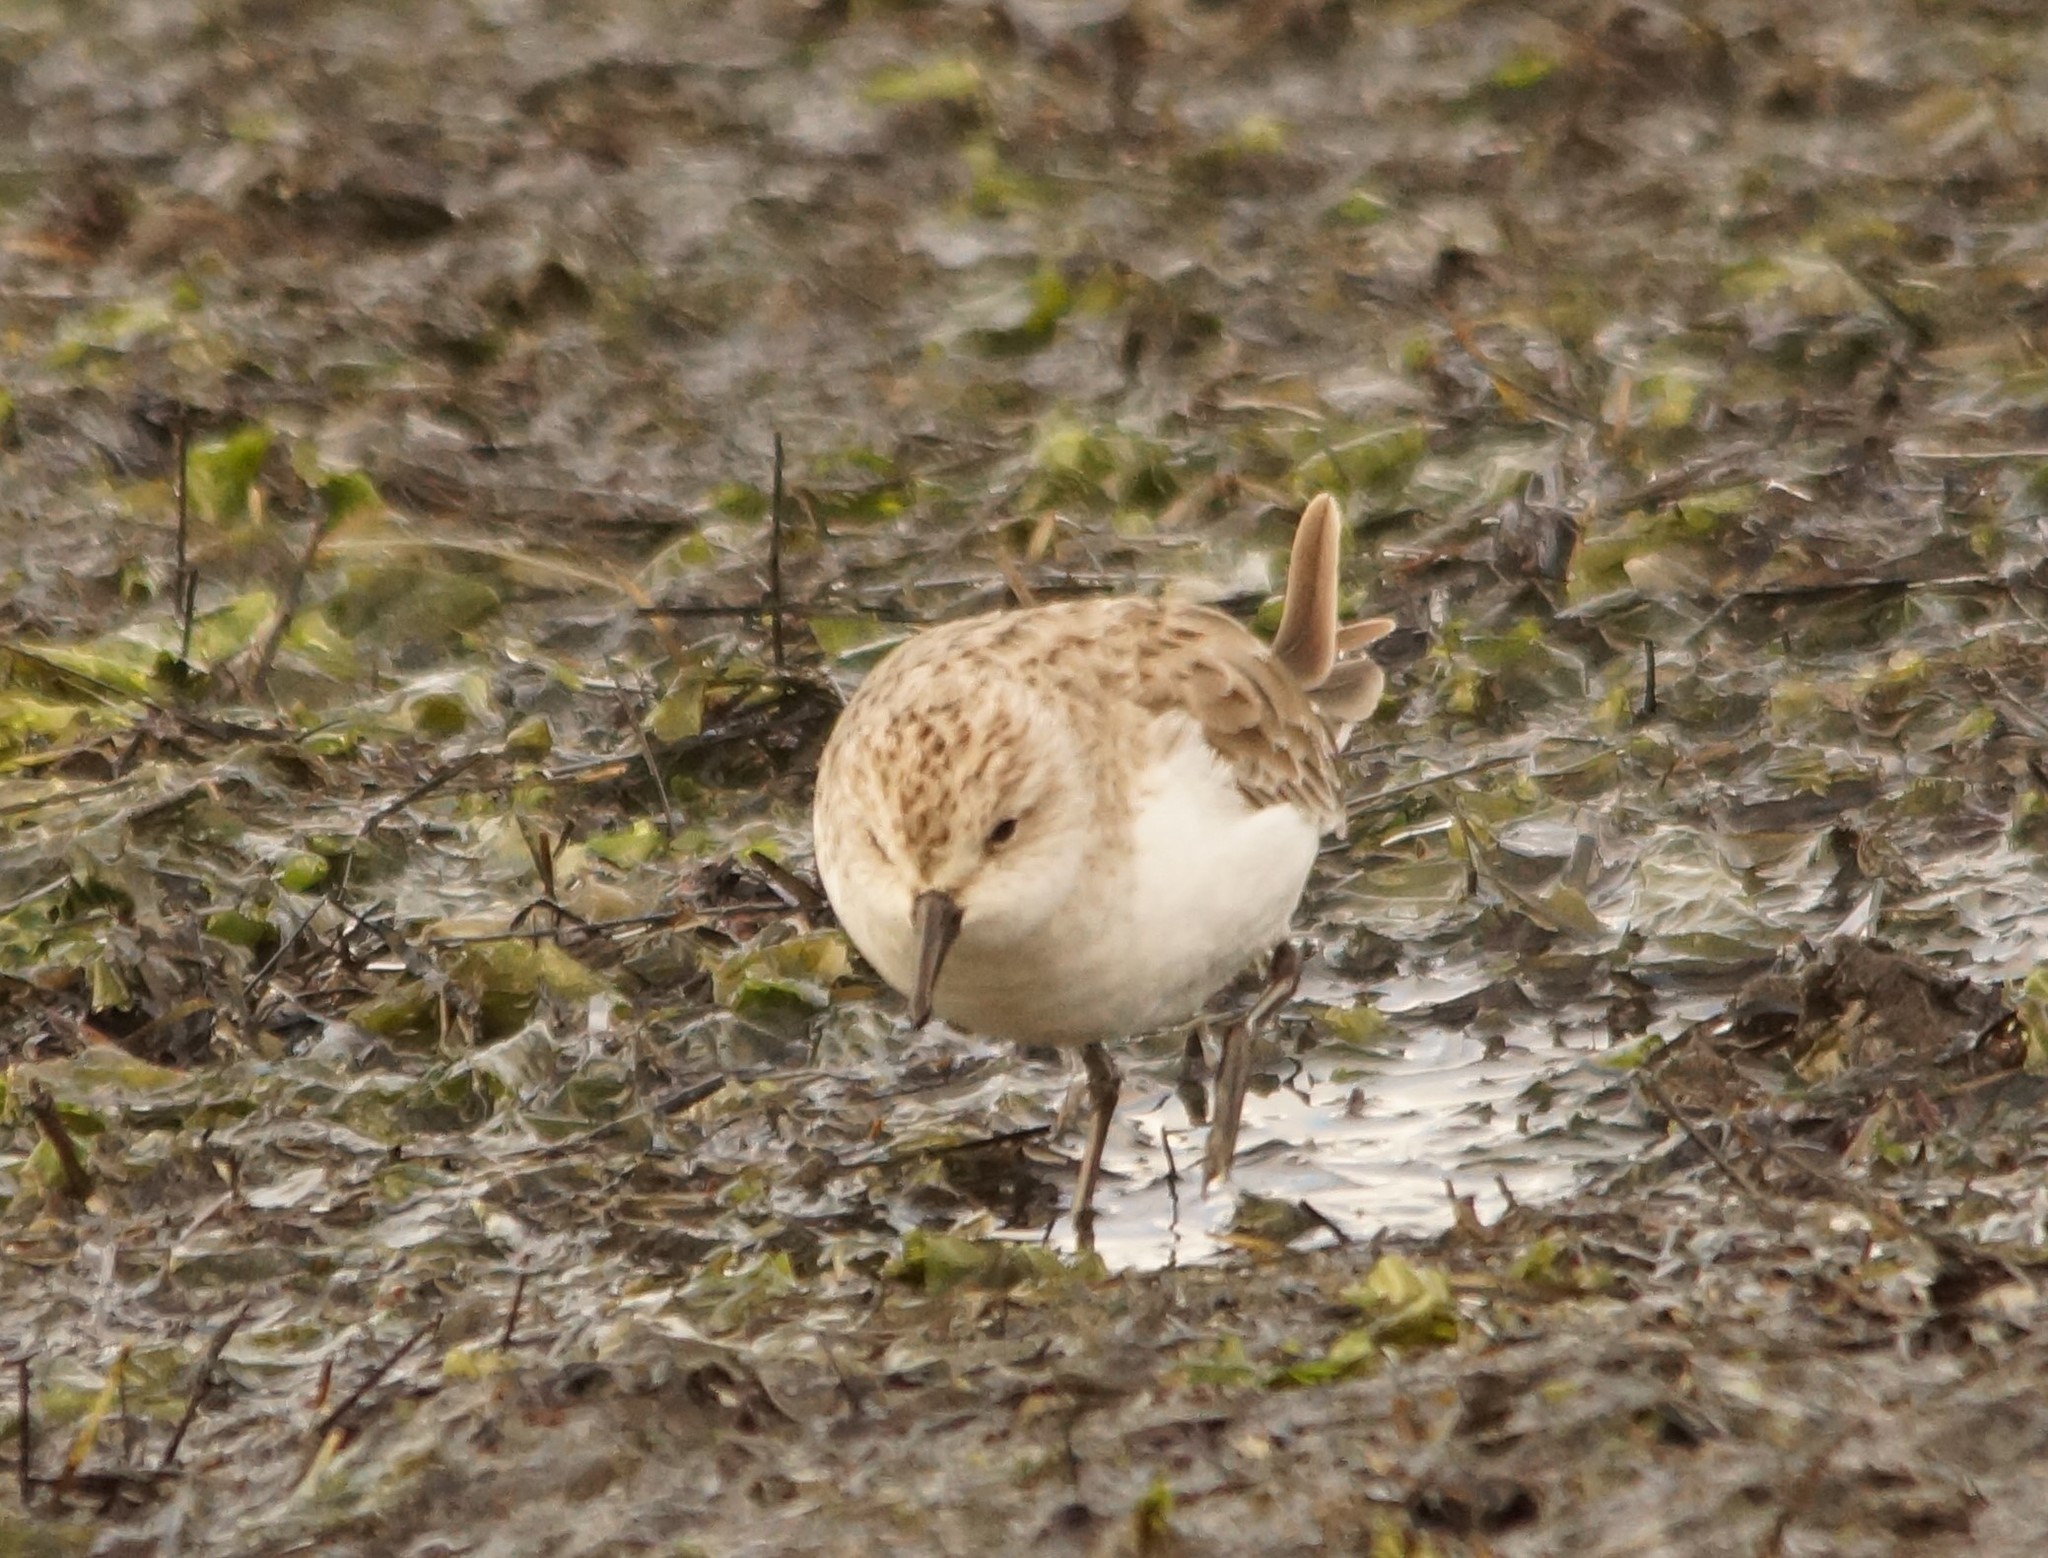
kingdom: Animalia
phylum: Chordata
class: Aves
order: Charadriiformes
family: Scolopacidae
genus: Calidris
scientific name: Calidris ruficollis
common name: Red-necked stint
